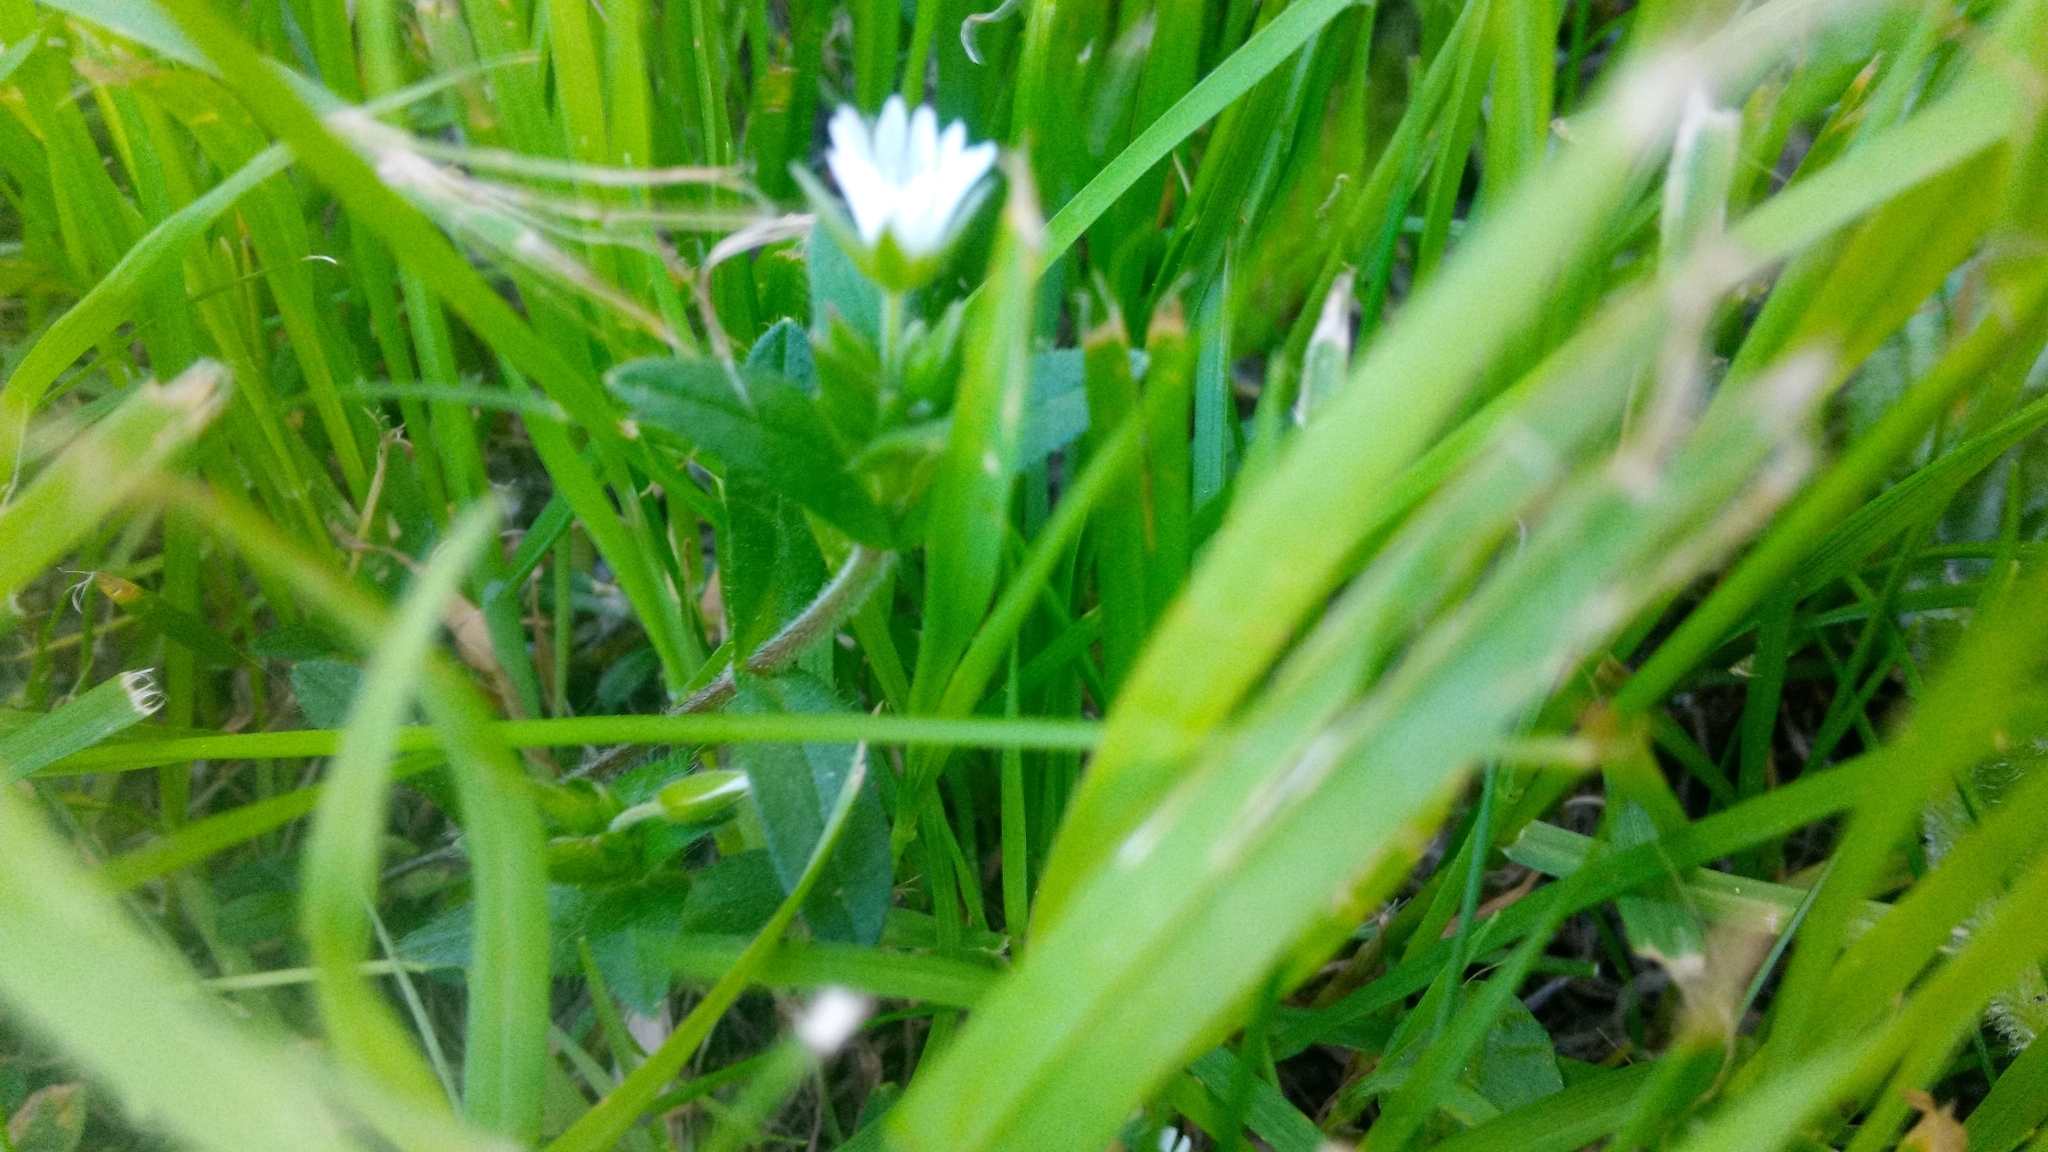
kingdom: Plantae
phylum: Tracheophyta
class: Magnoliopsida
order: Caryophyllales
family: Caryophyllaceae
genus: Cerastium
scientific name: Cerastium holosteoides
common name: Big chickweed
